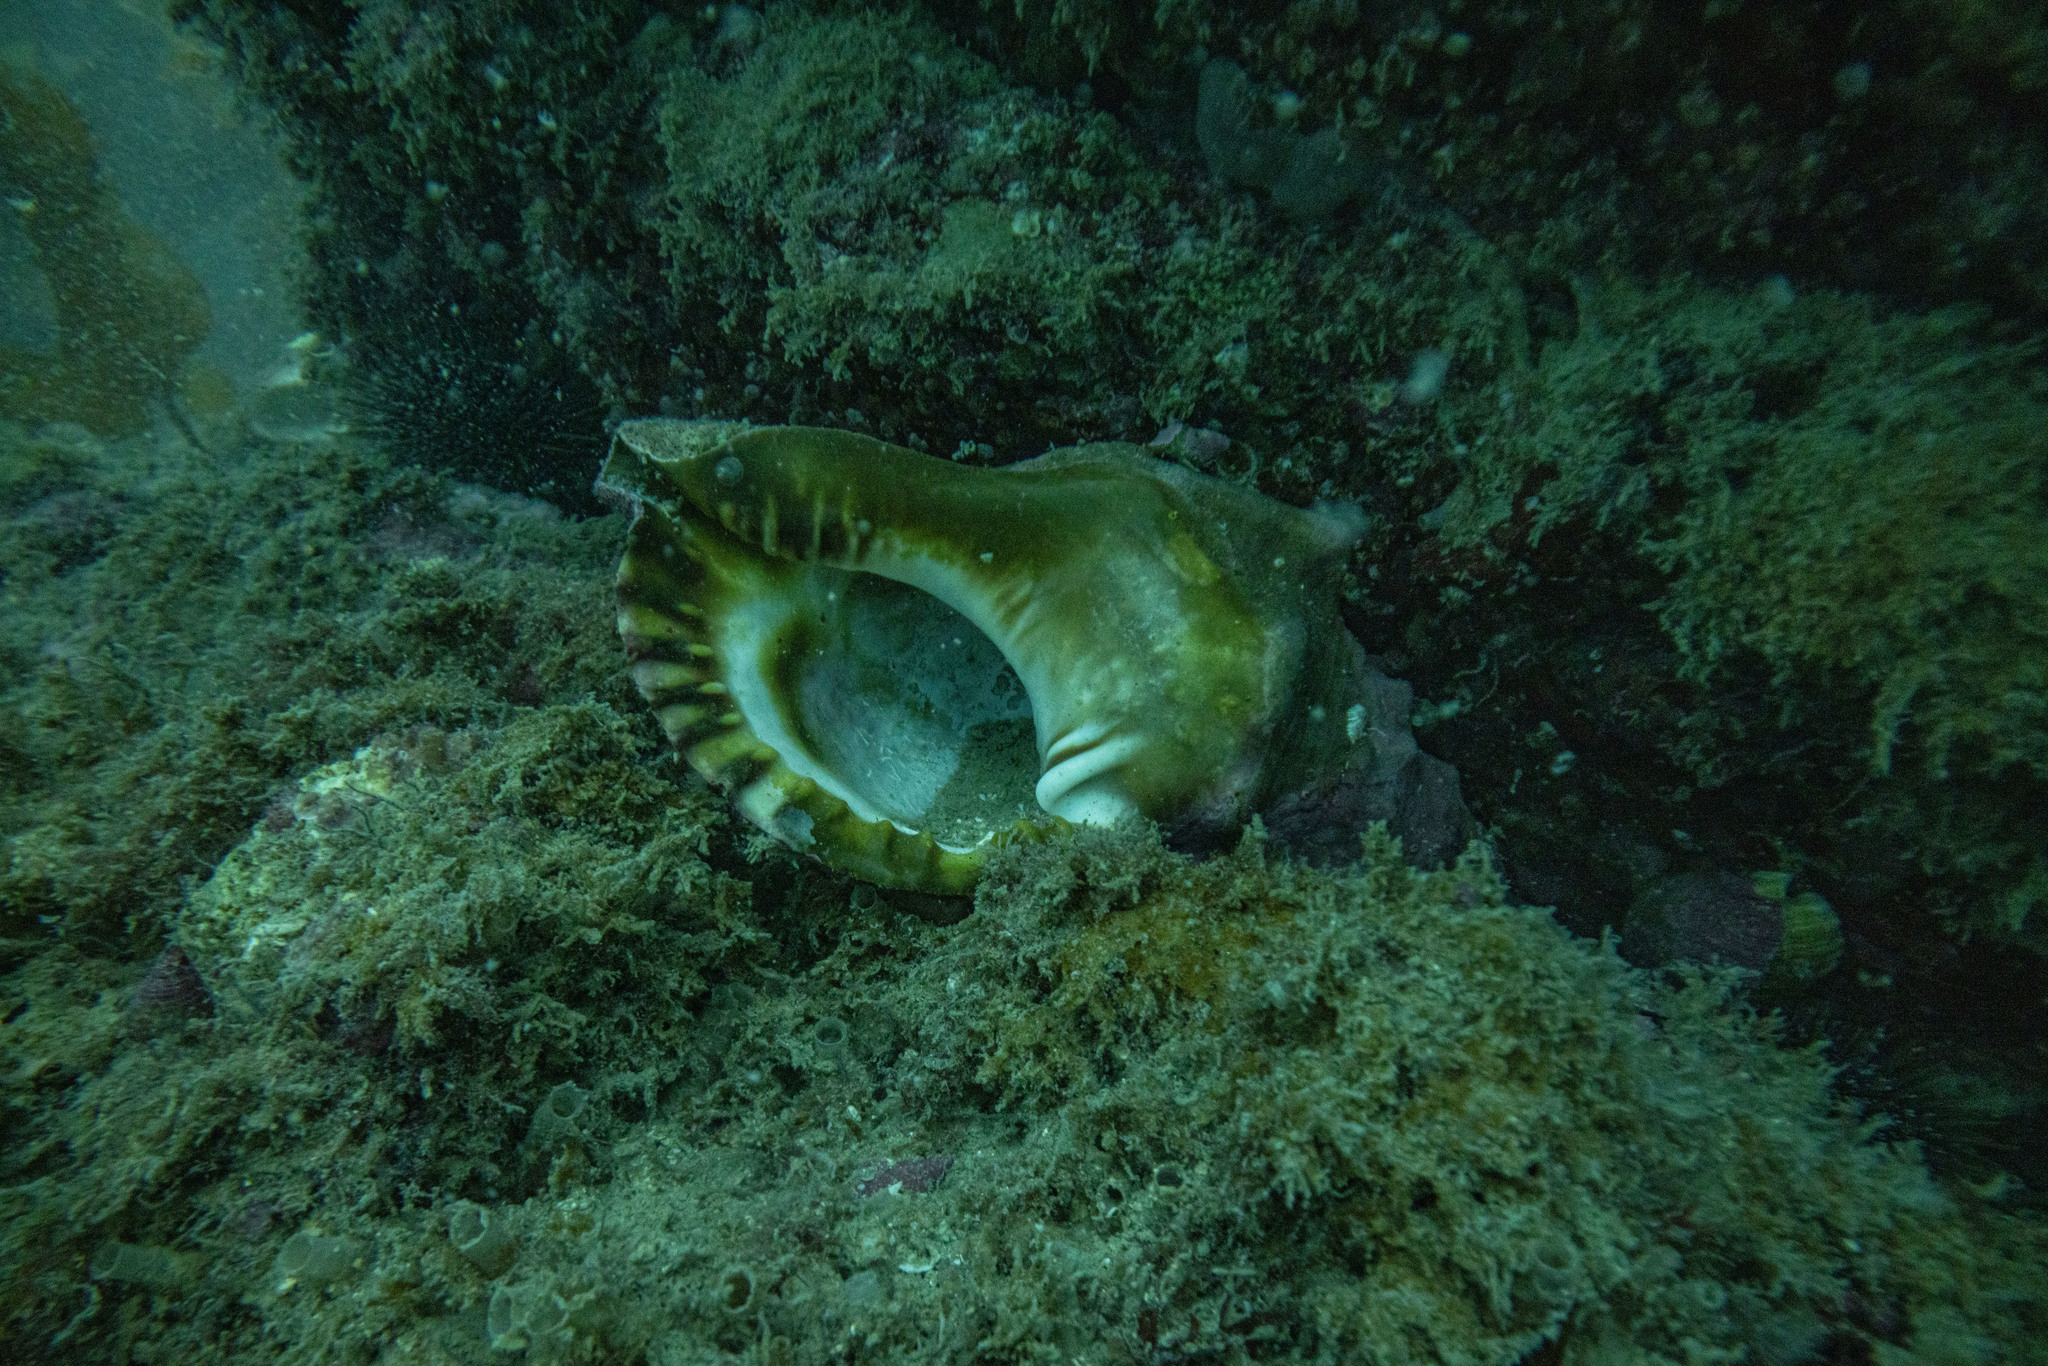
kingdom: Animalia
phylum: Mollusca
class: Gastropoda
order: Littorinimorpha
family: Charoniidae
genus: Charonia
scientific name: Charonia lampas
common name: Knobbed triton
